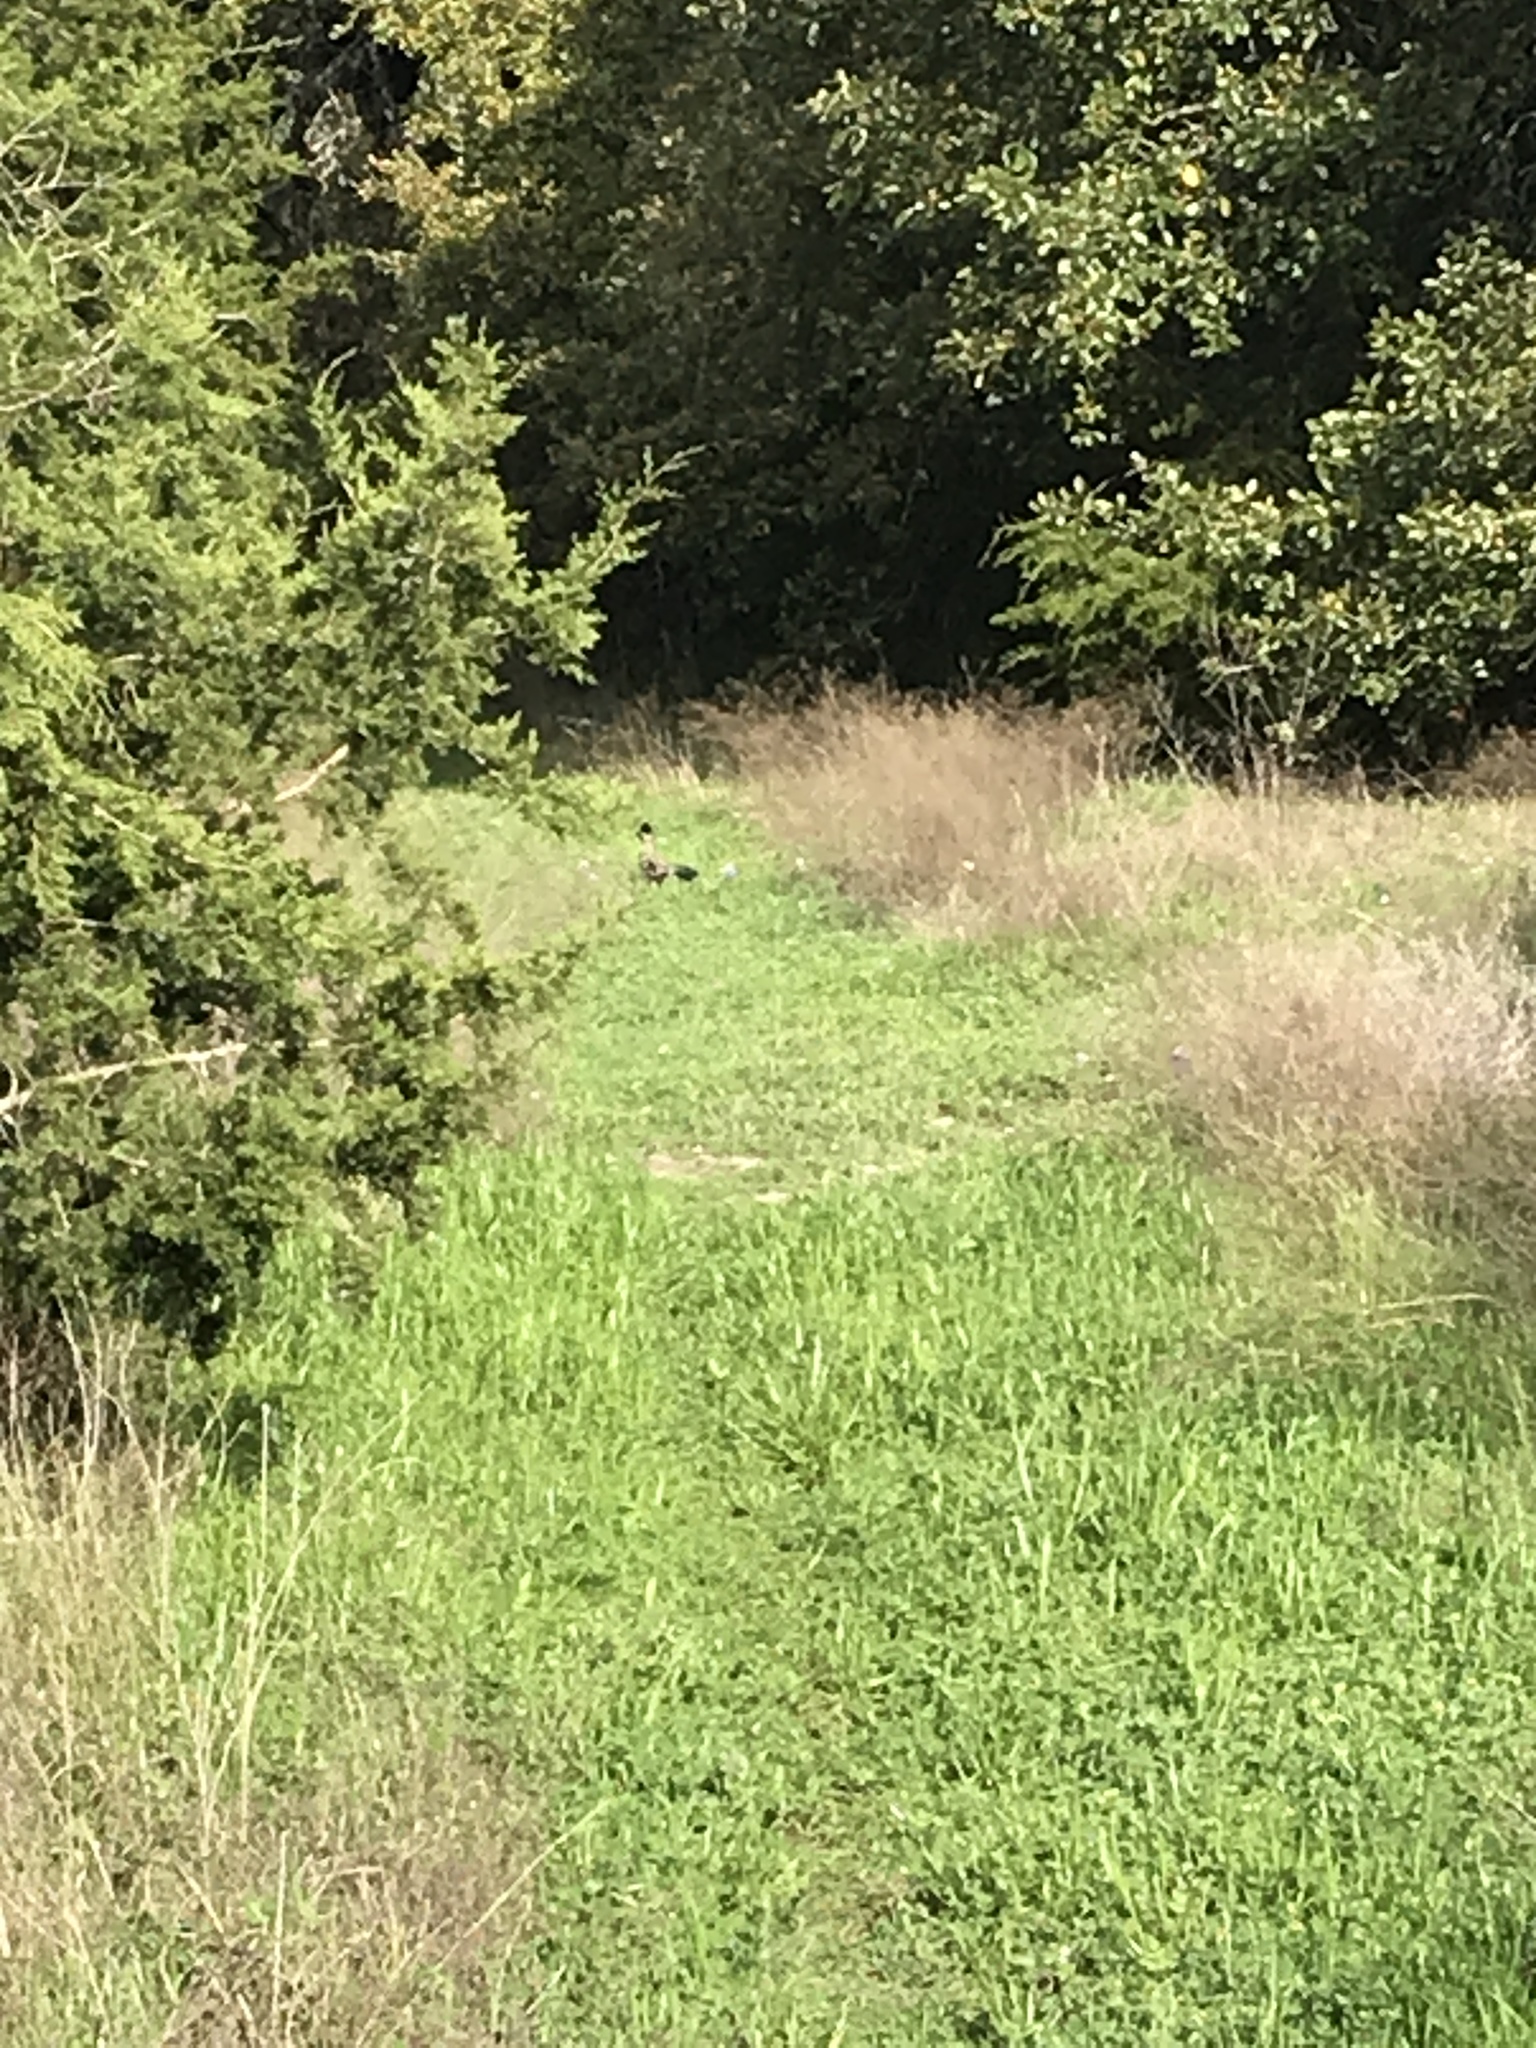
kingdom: Animalia
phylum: Chordata
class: Aves
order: Cuculiformes
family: Cuculidae
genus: Geococcyx
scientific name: Geococcyx californianus
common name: Greater roadrunner
